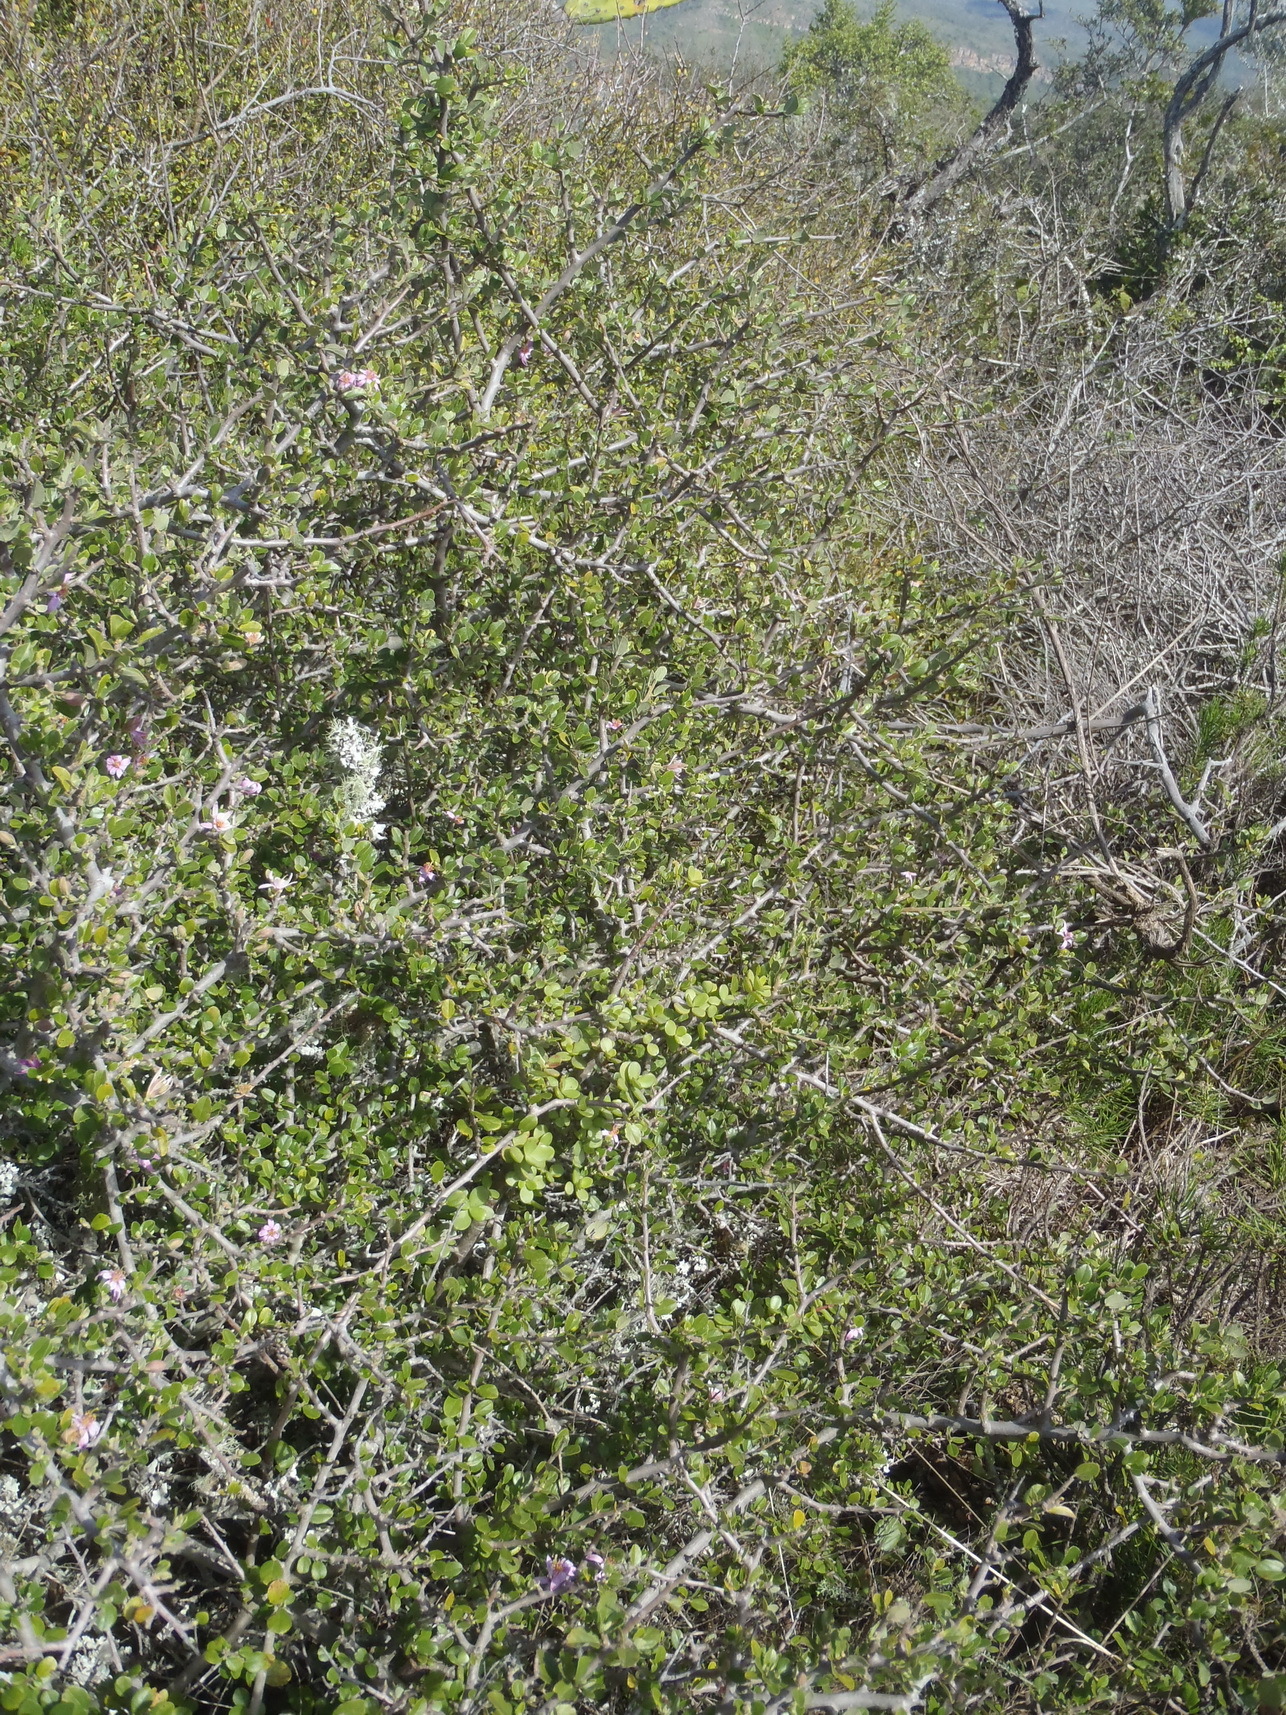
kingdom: Plantae
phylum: Tracheophyta
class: Magnoliopsida
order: Malvales
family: Malvaceae
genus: Grewia
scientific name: Grewia robusta
